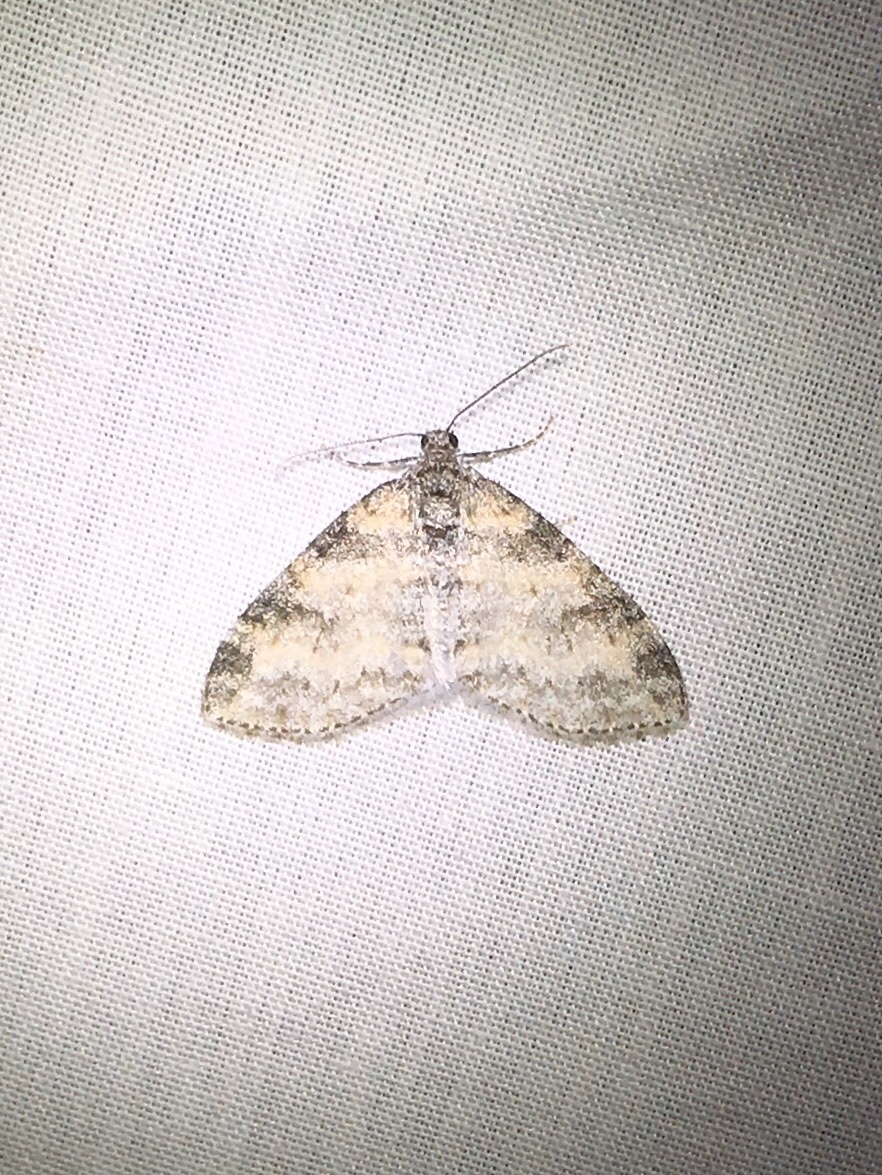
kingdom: Animalia
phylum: Arthropoda
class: Insecta
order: Lepidoptera
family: Geometridae
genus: Lobophora
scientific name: Lobophora nivigerata
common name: Powdered bigwing
